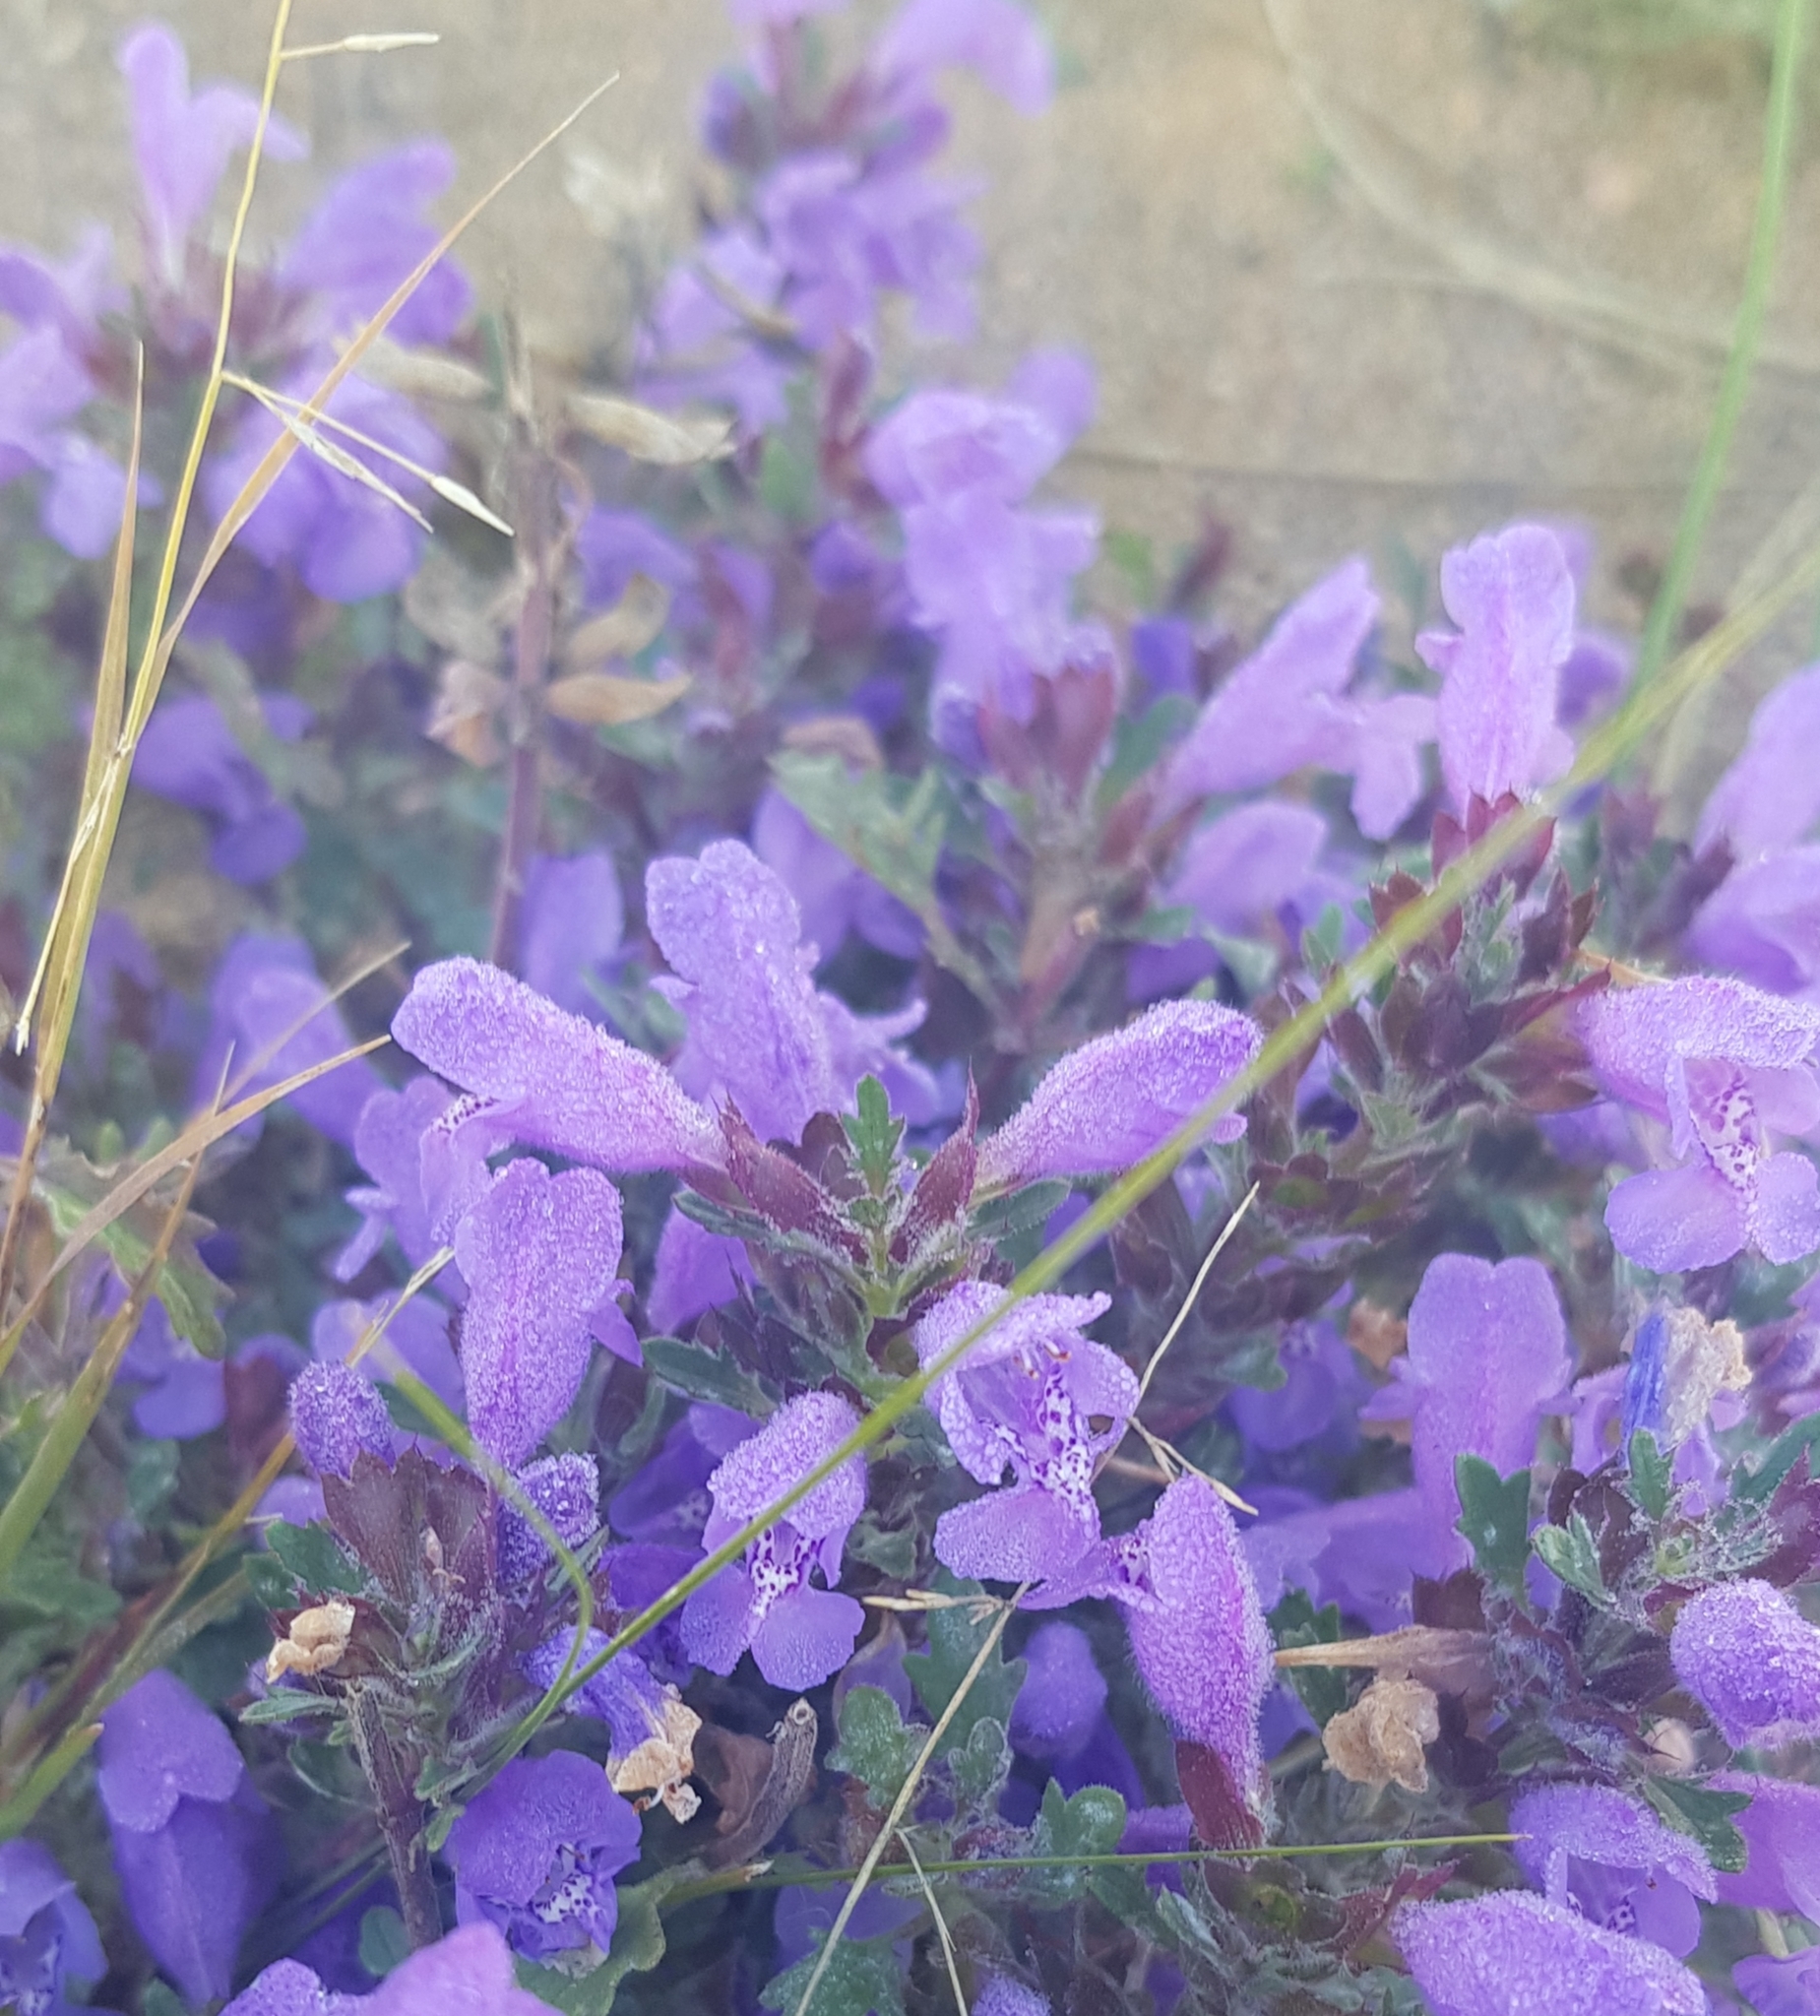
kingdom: Plantae
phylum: Tracheophyta
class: Magnoliopsida
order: Lamiales
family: Lamiaceae
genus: Dracocephalum
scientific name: Dracocephalum foetidum
